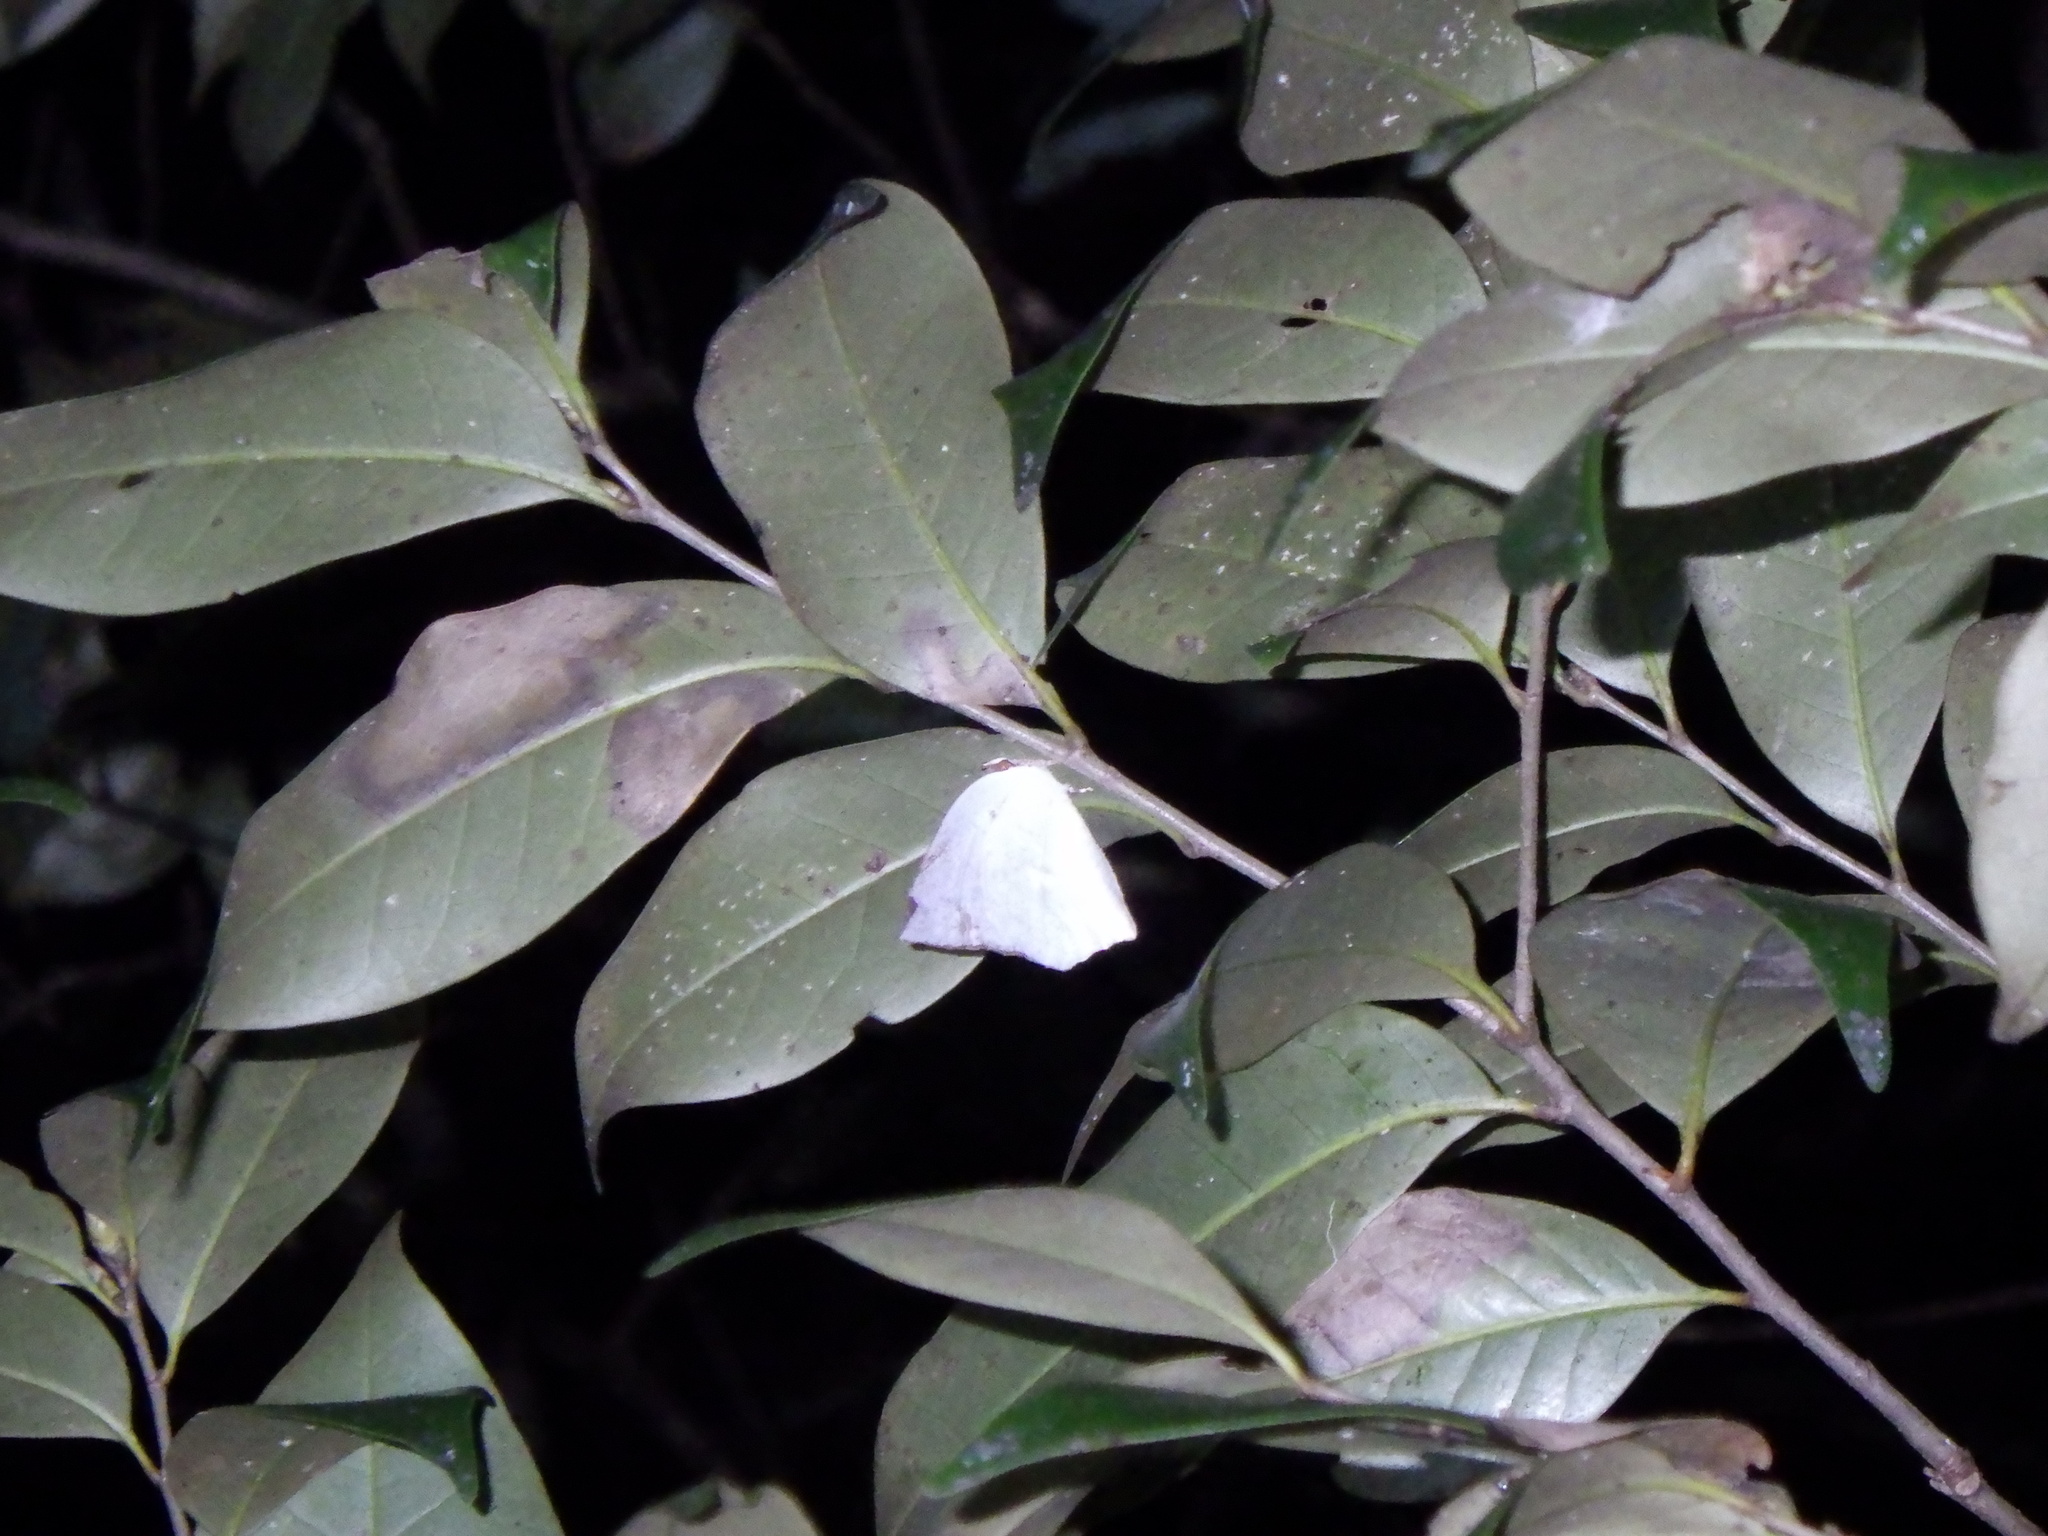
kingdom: Animalia
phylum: Arthropoda
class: Insecta
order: Lepidoptera
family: Lycaenidae
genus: Curetis
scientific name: Curetis acuta
